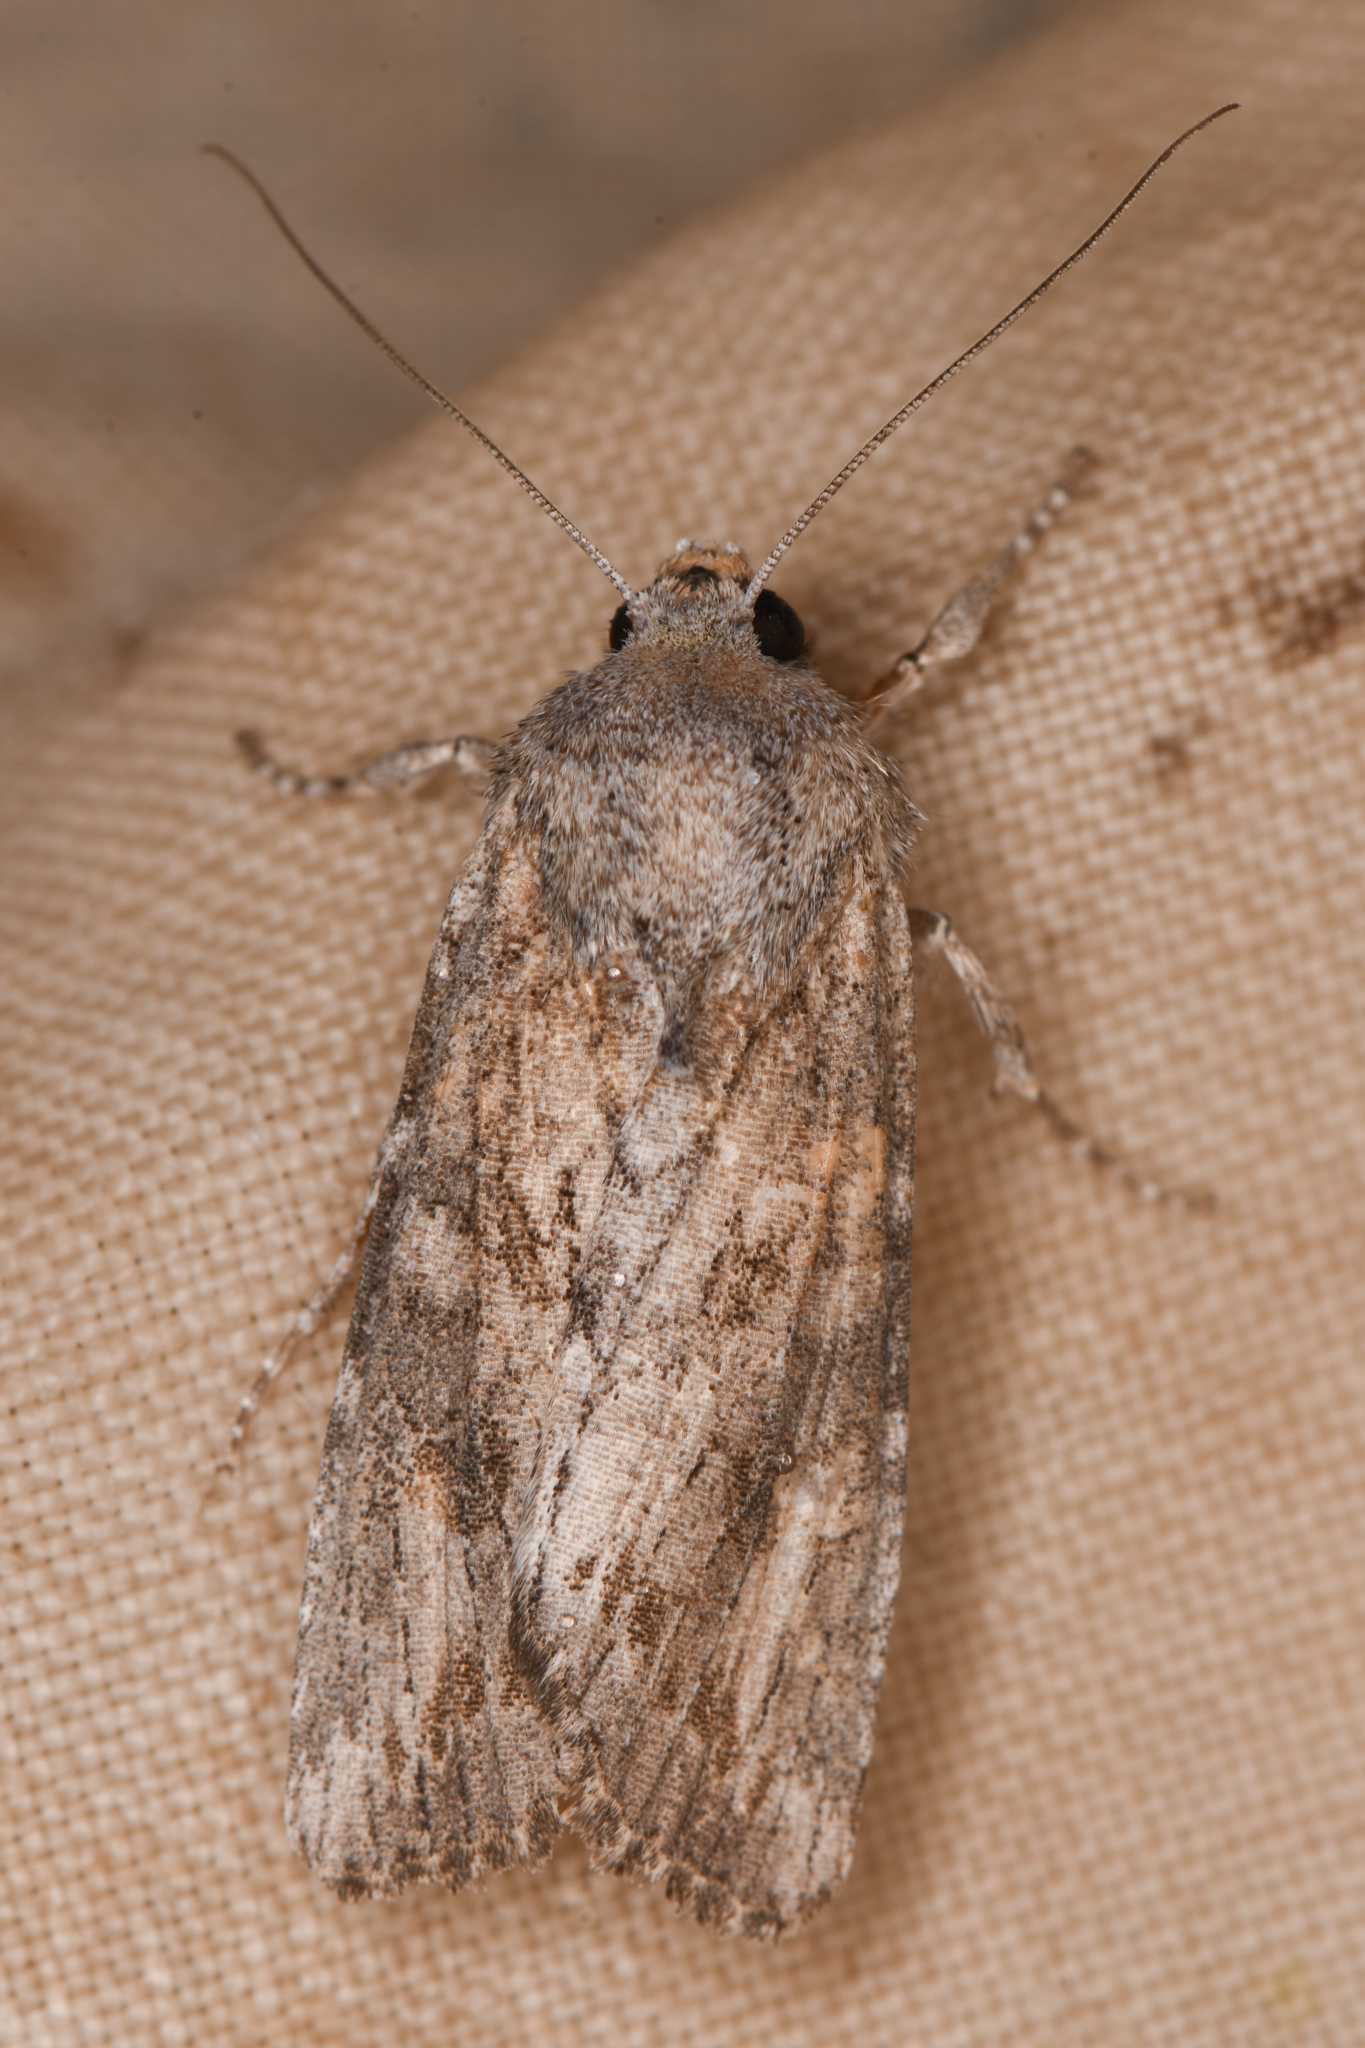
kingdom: Animalia
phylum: Arthropoda
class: Insecta
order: Lepidoptera
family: Noctuidae
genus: Egira
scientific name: Egira curialis
